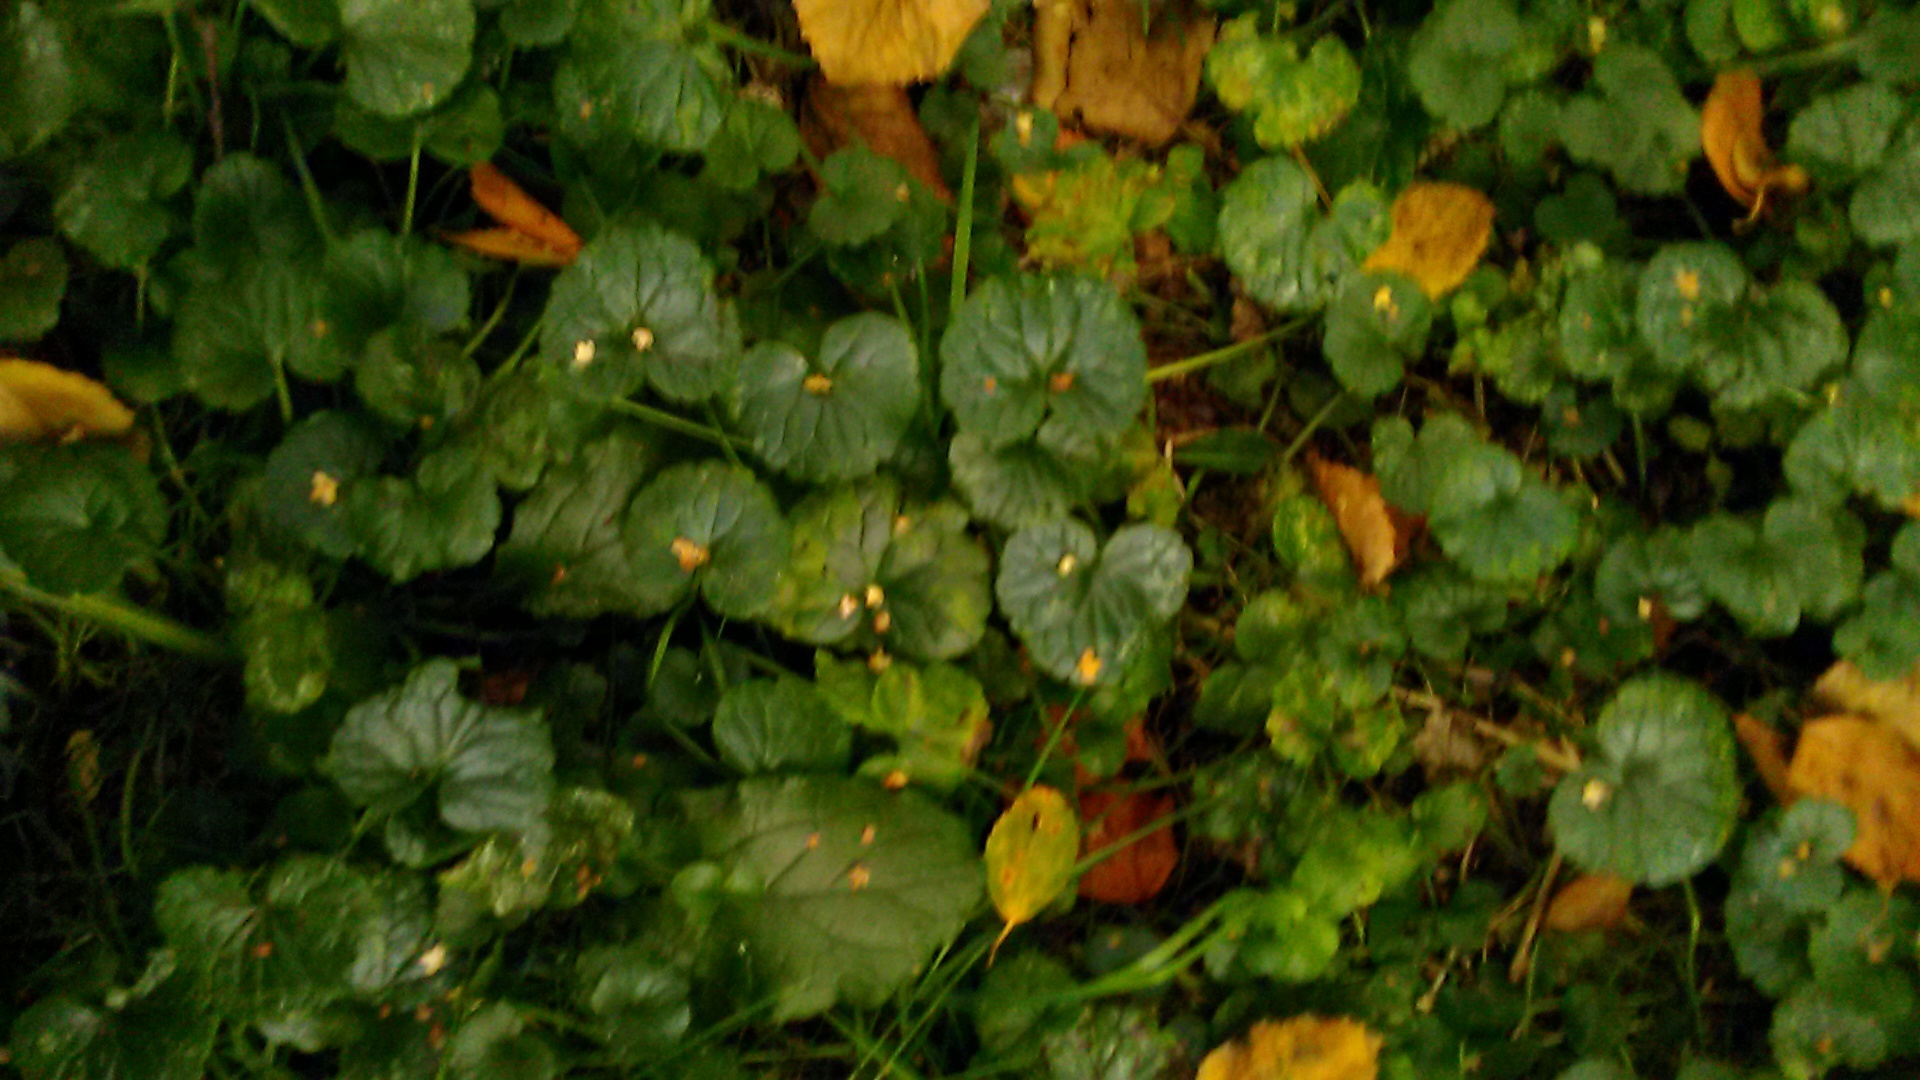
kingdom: Plantae
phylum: Tracheophyta
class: Magnoliopsida
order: Lamiales
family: Lamiaceae
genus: Glechoma
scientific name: Glechoma hederacea
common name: Ground ivy
